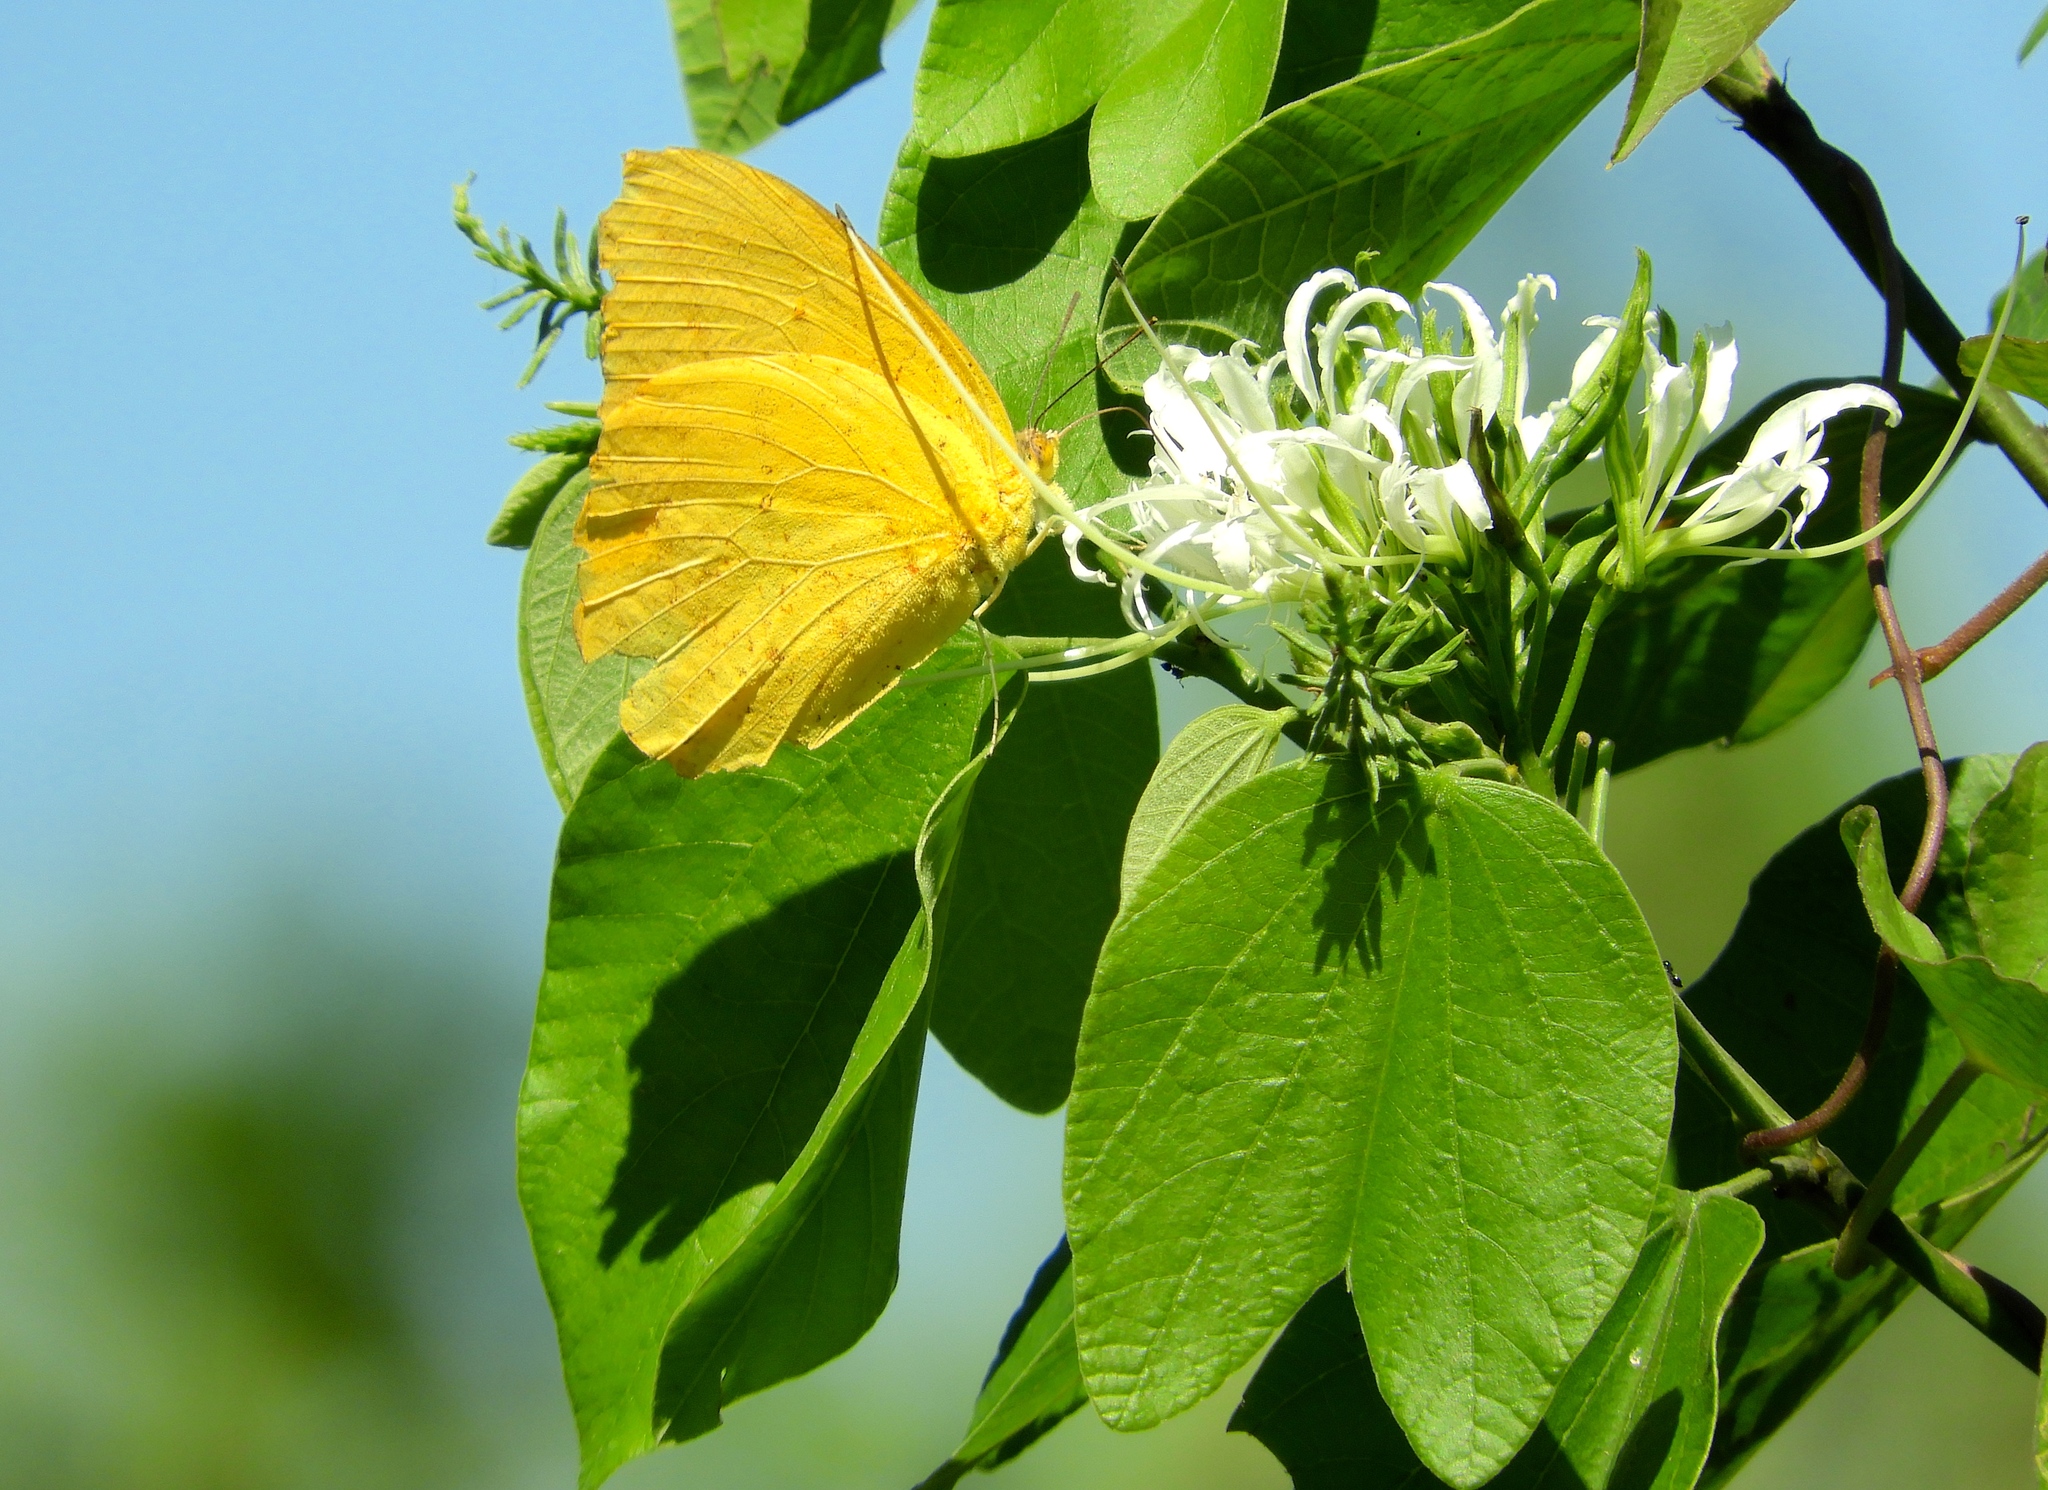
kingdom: Animalia
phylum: Arthropoda
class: Insecta
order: Lepidoptera
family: Pieridae
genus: Phoebis
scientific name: Phoebis agarithe
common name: Large orange sulphur
